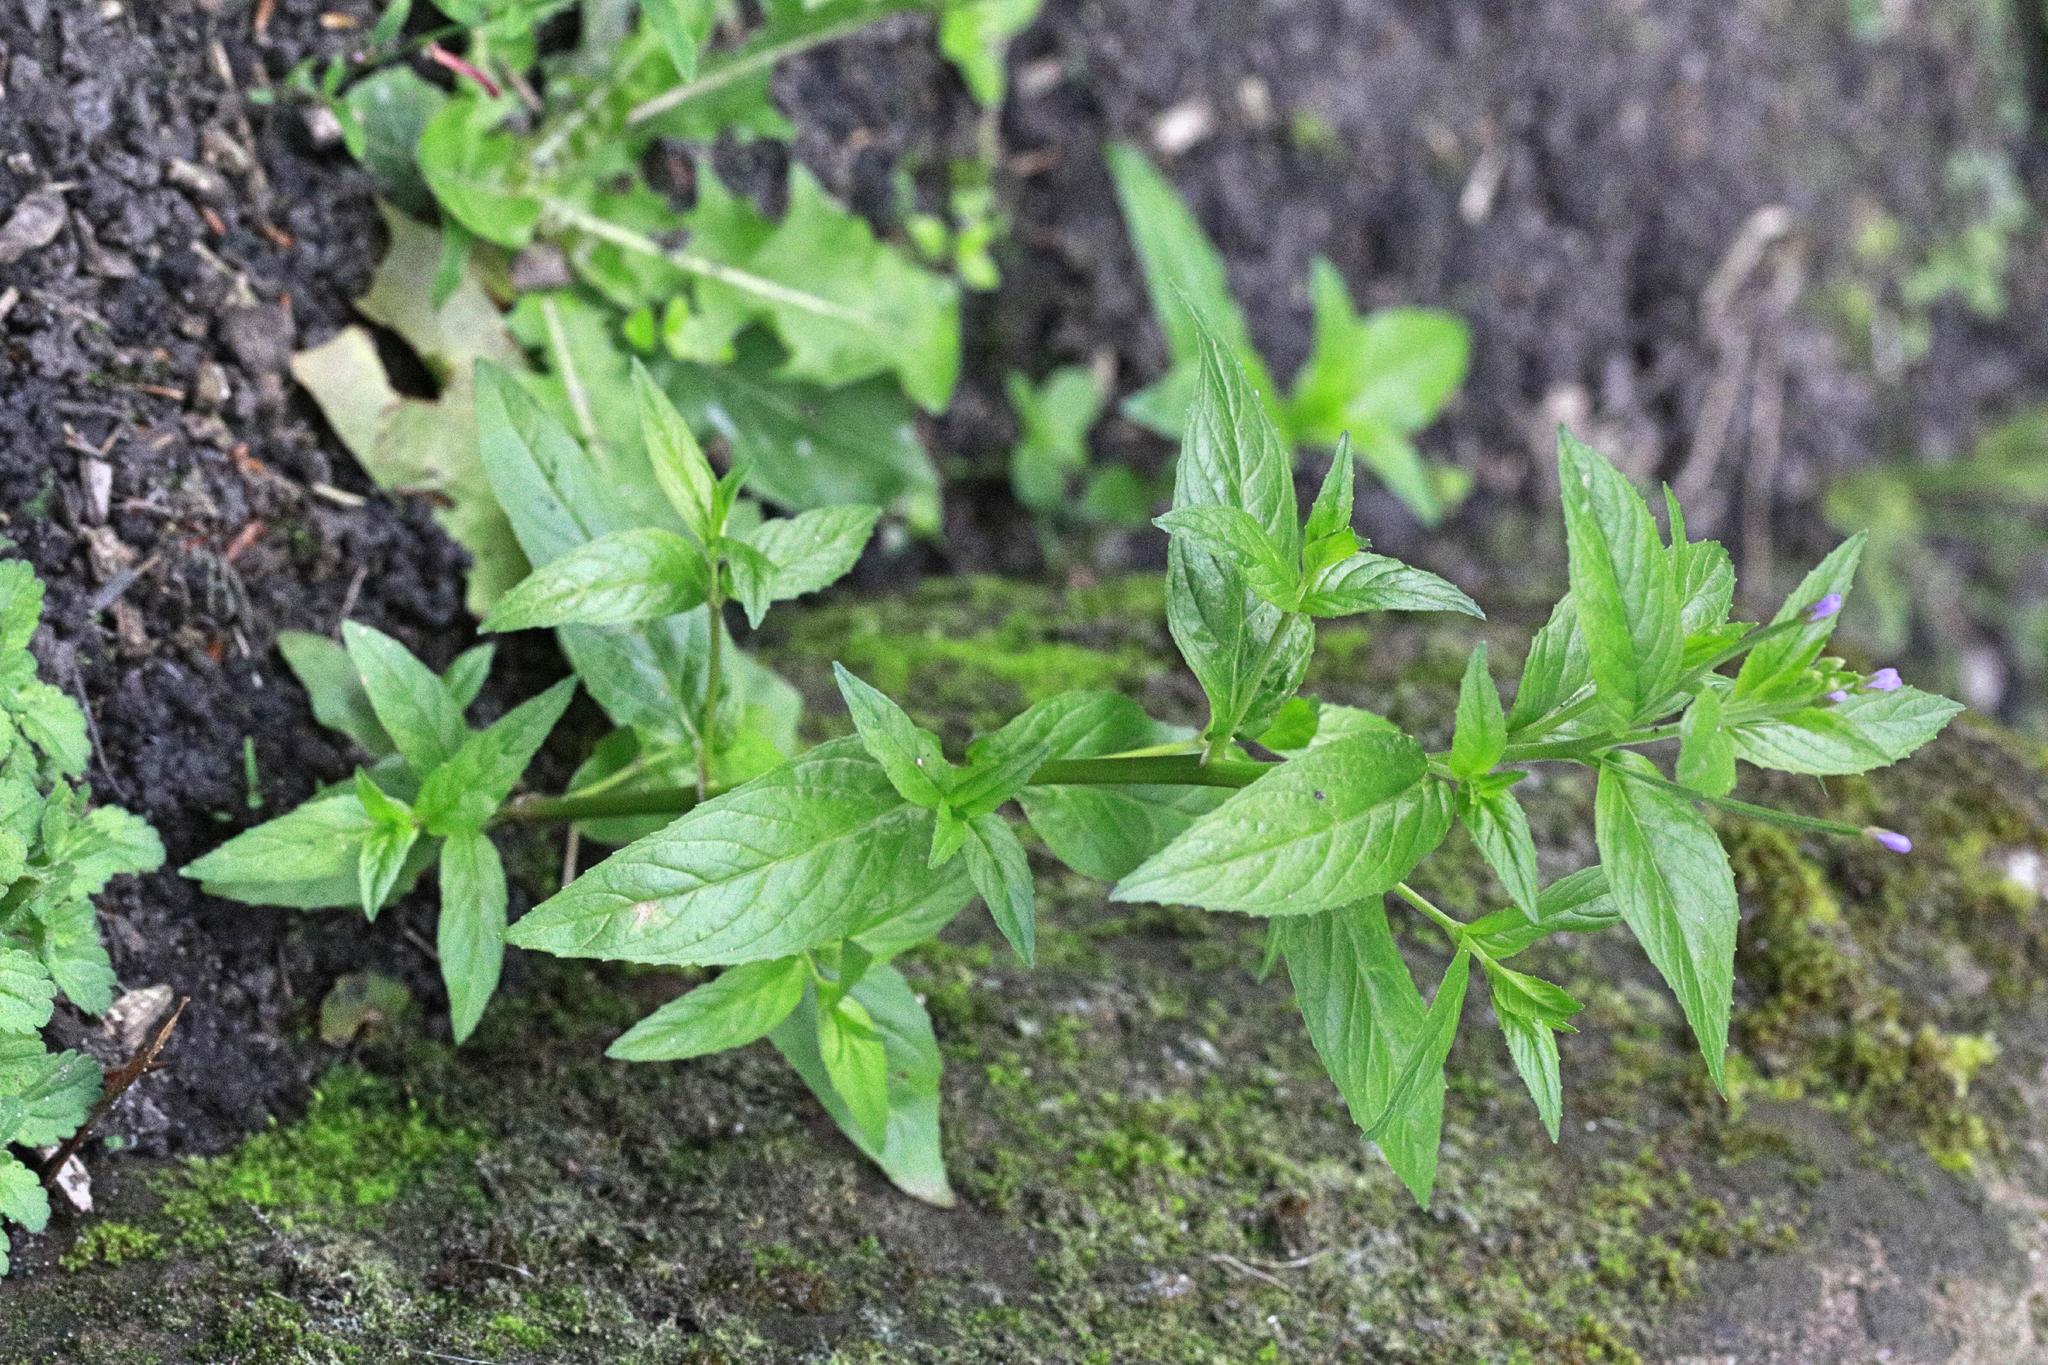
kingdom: Plantae
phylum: Tracheophyta
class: Magnoliopsida
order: Myrtales
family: Onagraceae
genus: Epilobium
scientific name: Epilobium montanum
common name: Broad-leaved willowherb
